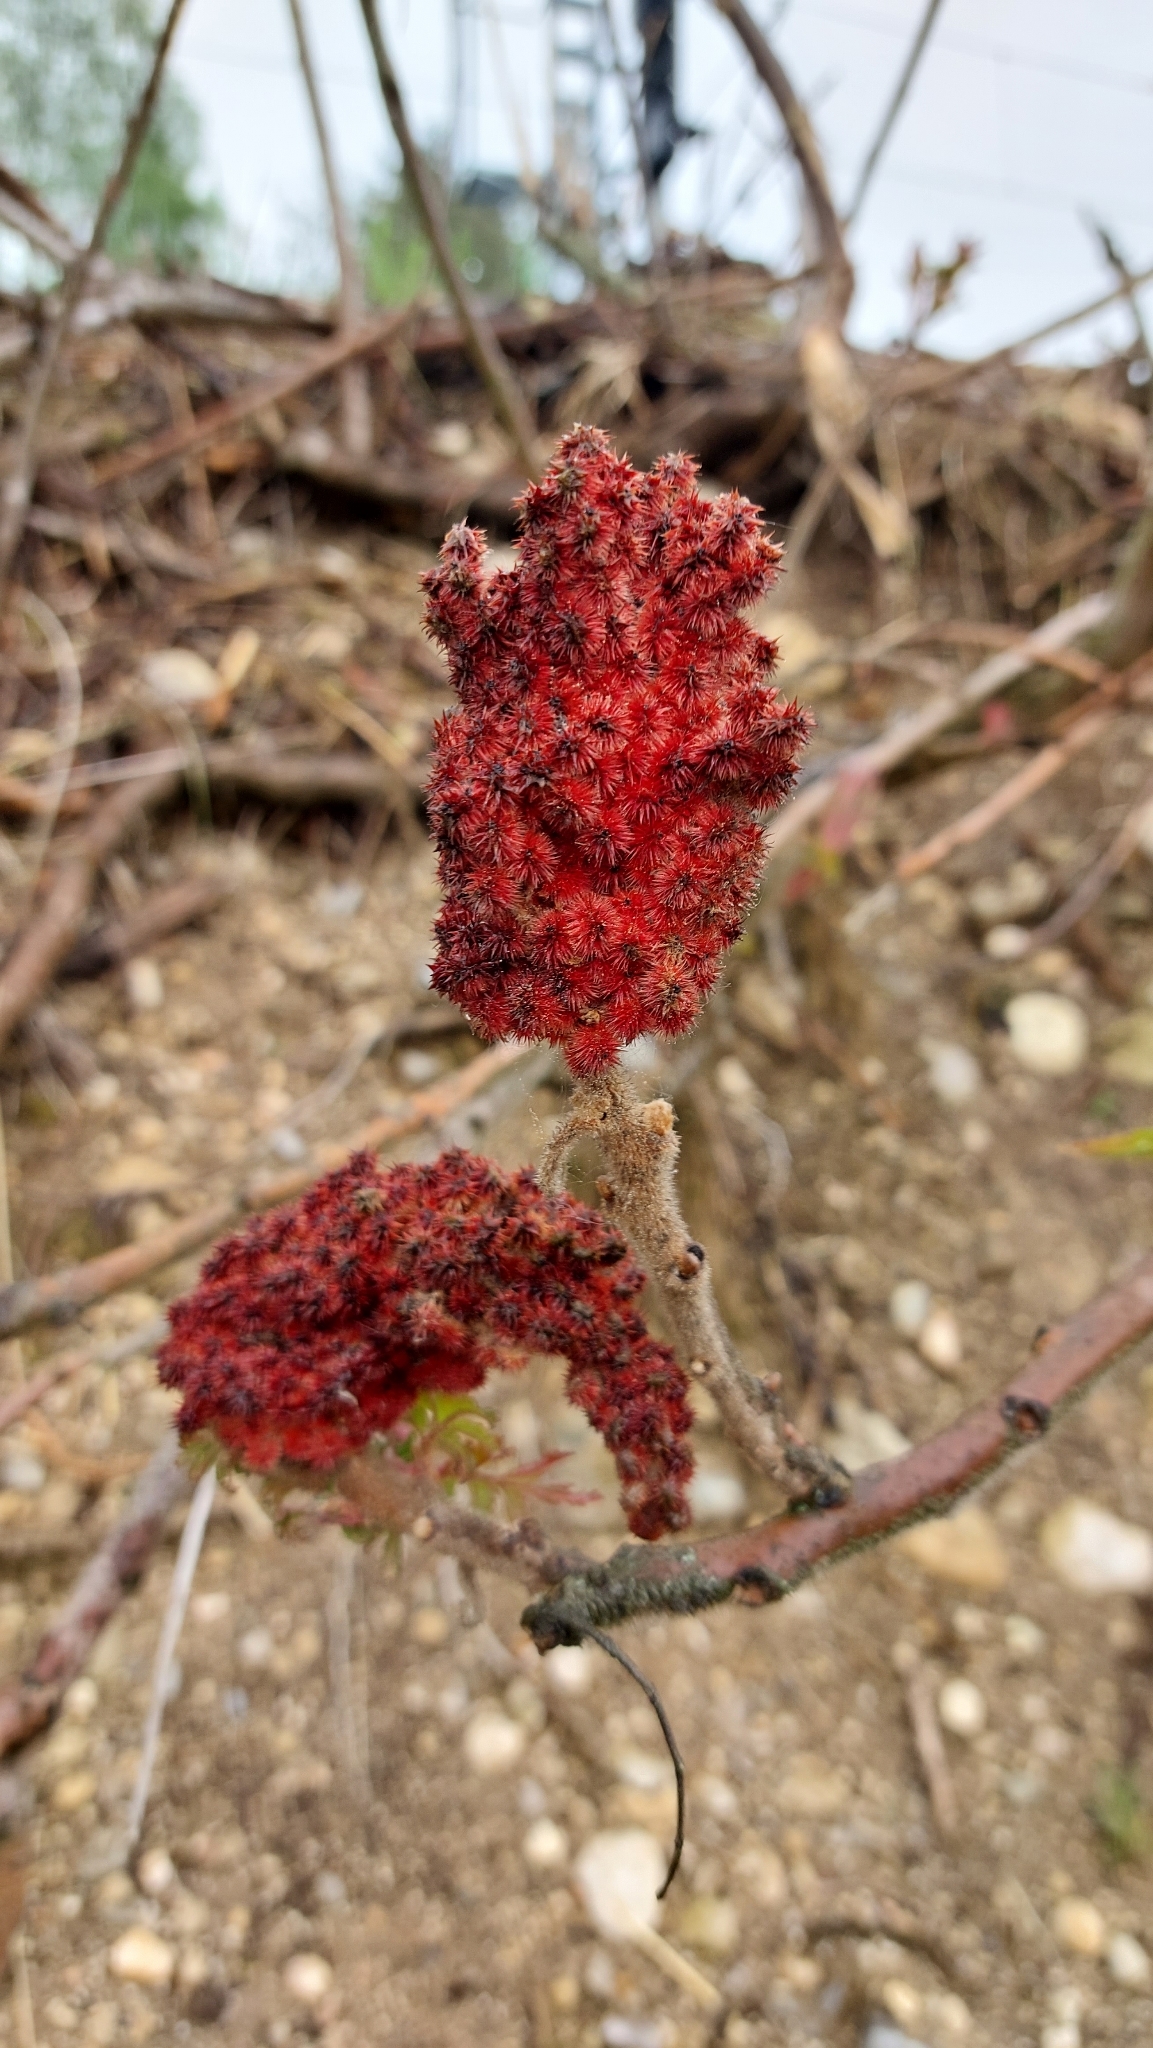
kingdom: Plantae
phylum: Tracheophyta
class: Magnoliopsida
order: Sapindales
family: Anacardiaceae
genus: Rhus
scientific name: Rhus typhina
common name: Staghorn sumac
